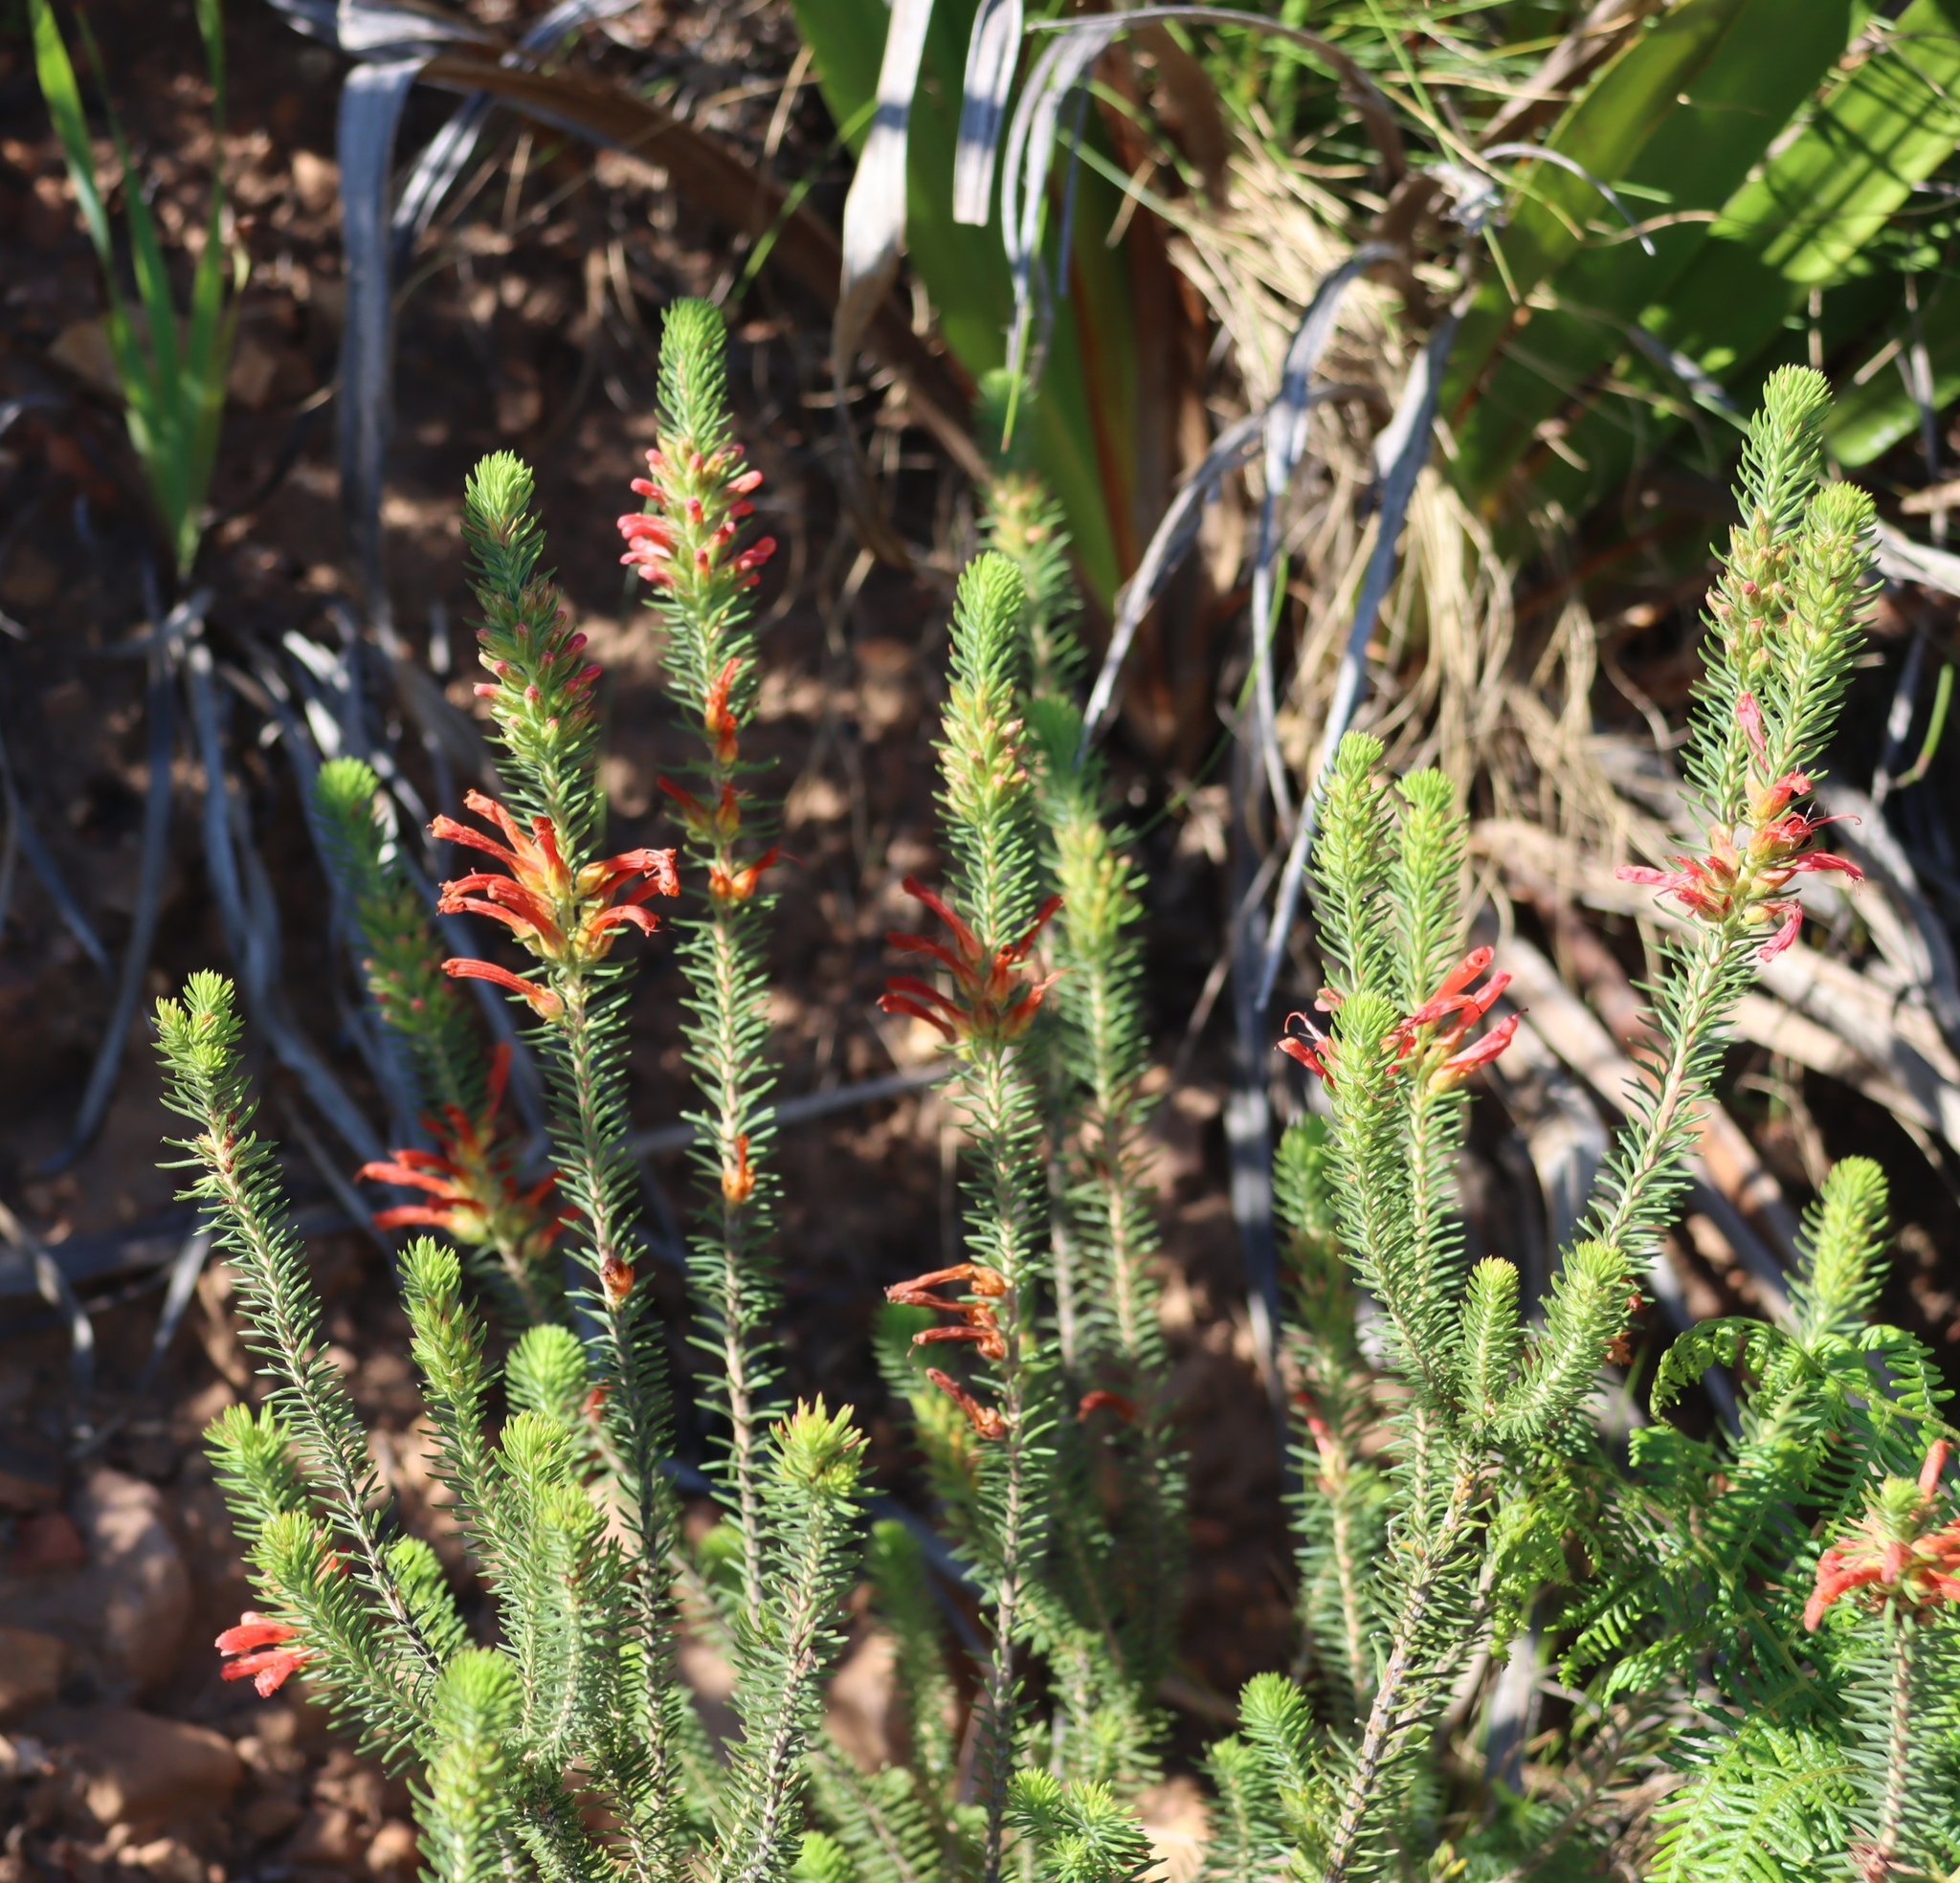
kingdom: Plantae
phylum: Tracheophyta
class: Magnoliopsida
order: Ericales
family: Ericaceae
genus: Erica
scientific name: Erica abietina
